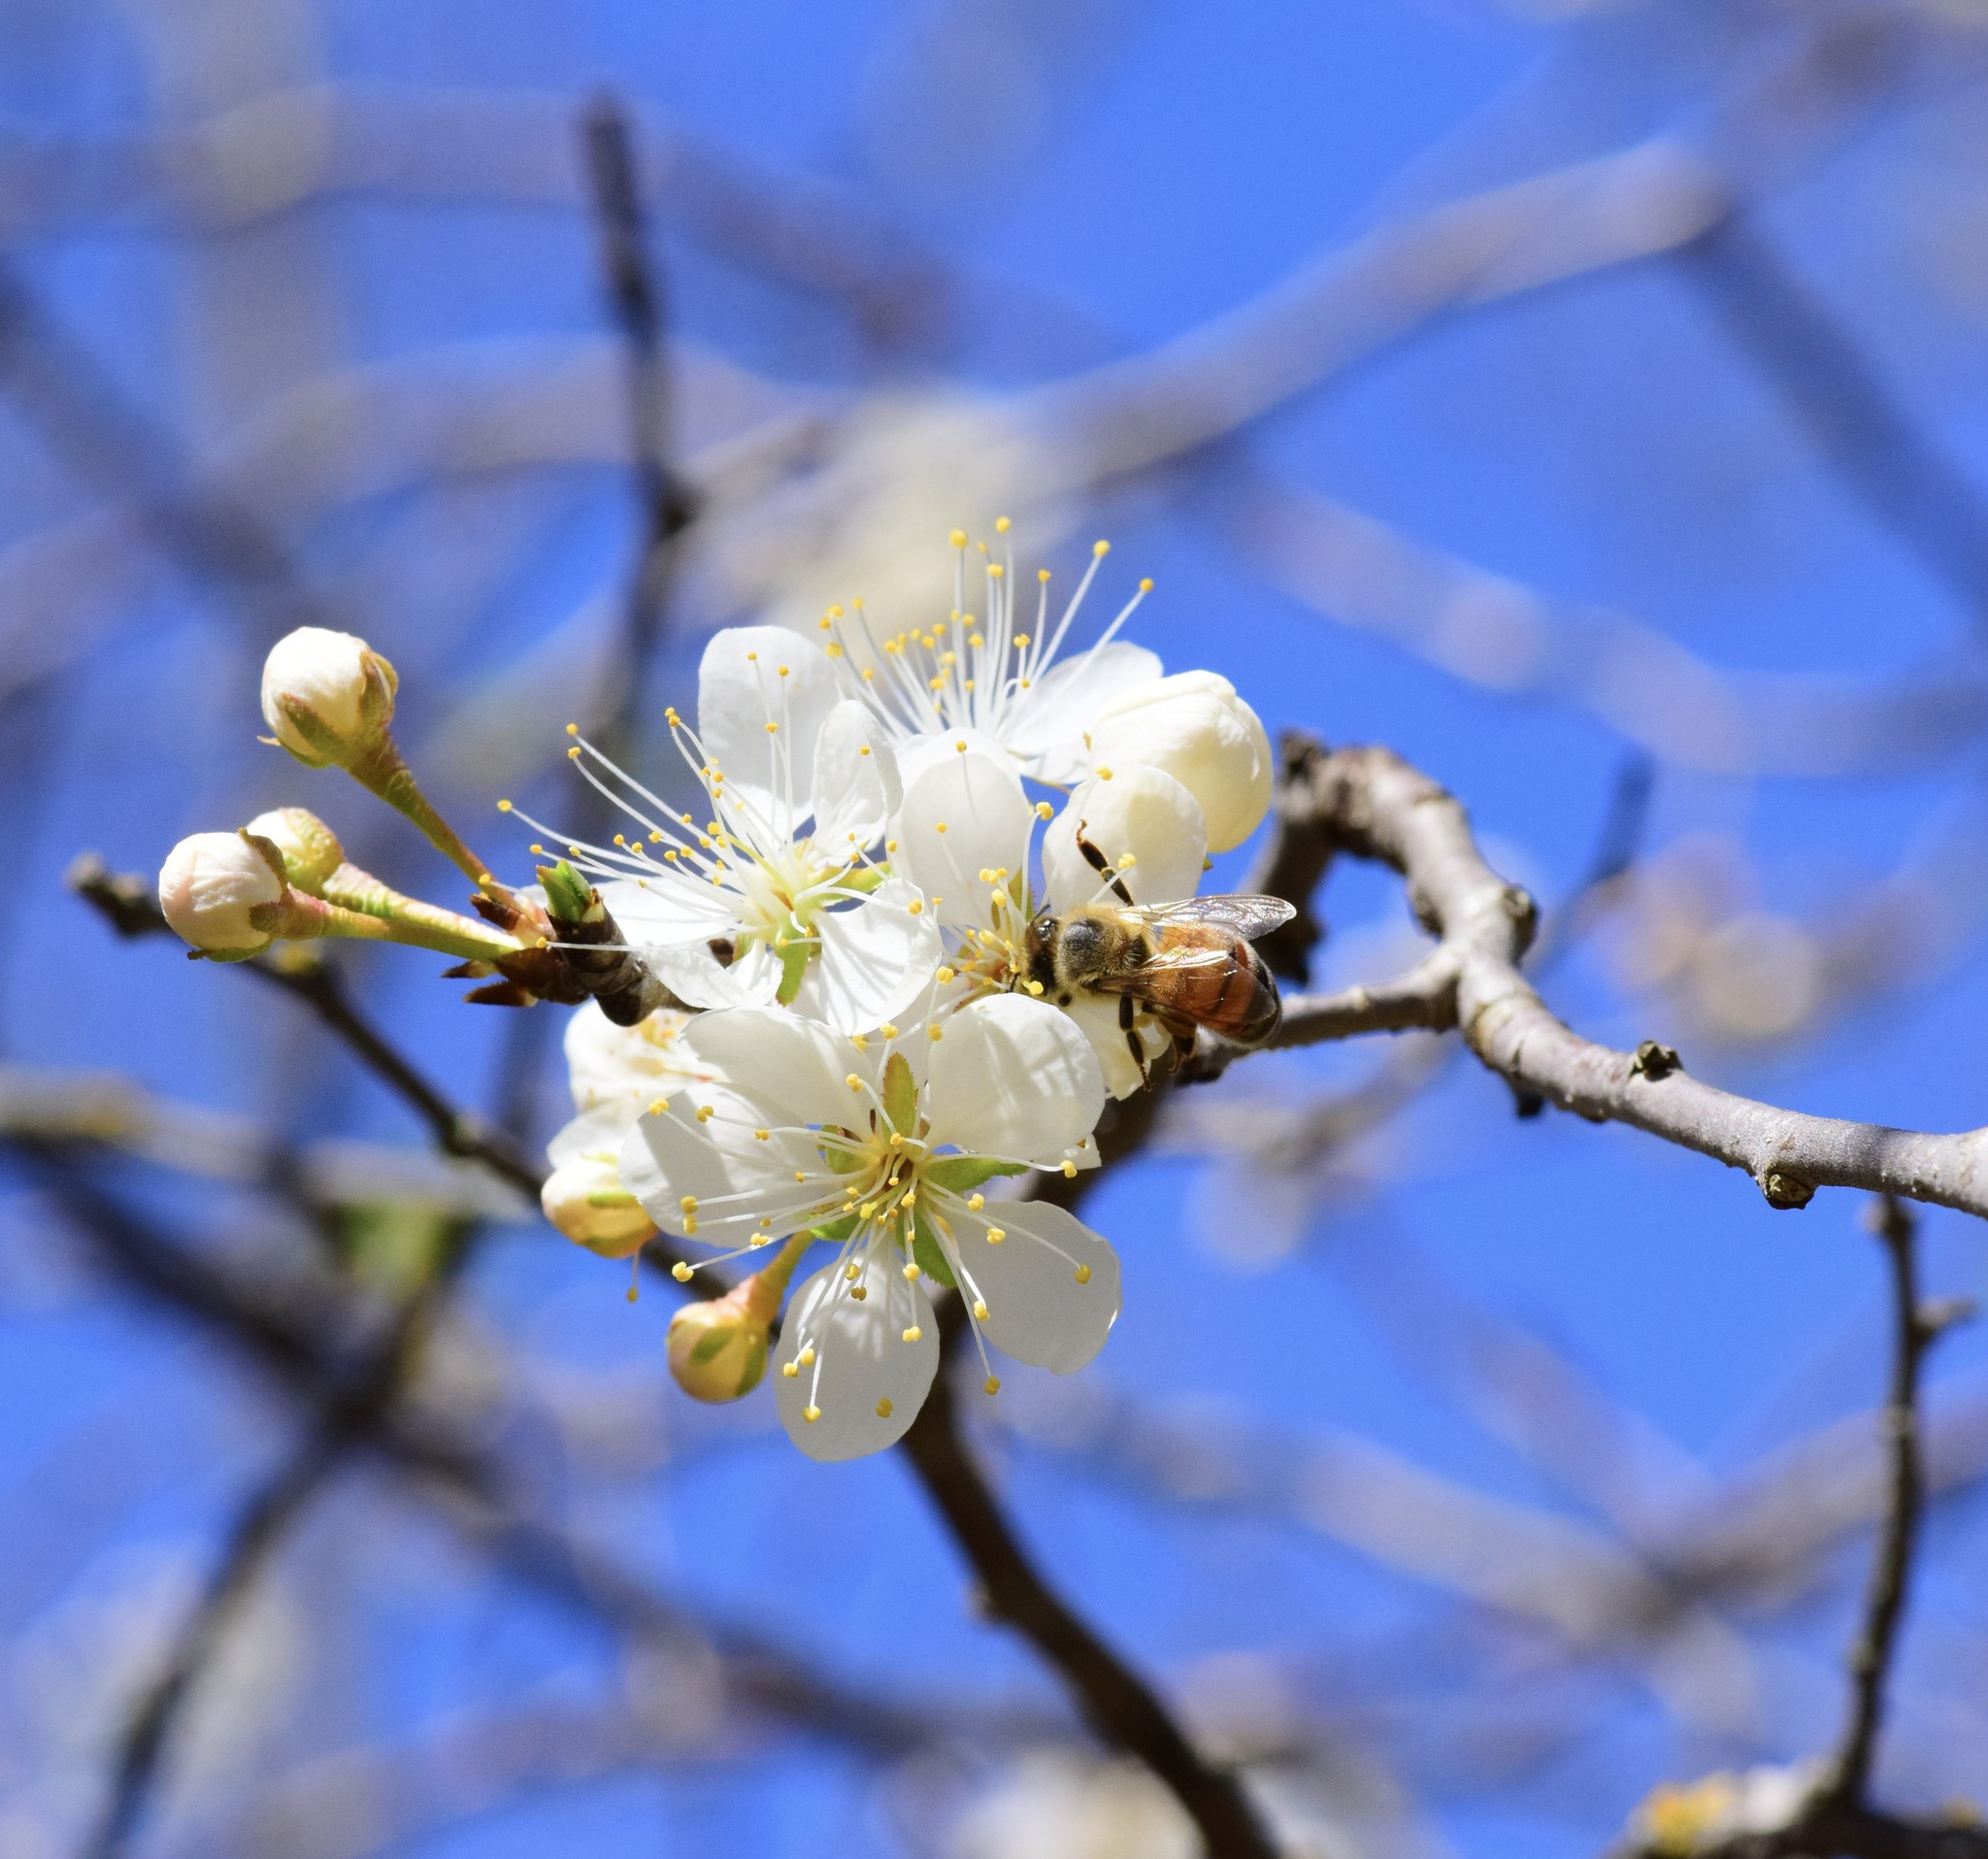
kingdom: Animalia
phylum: Arthropoda
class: Insecta
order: Hymenoptera
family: Apidae
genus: Apis
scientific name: Apis mellifera
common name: Honey bee
